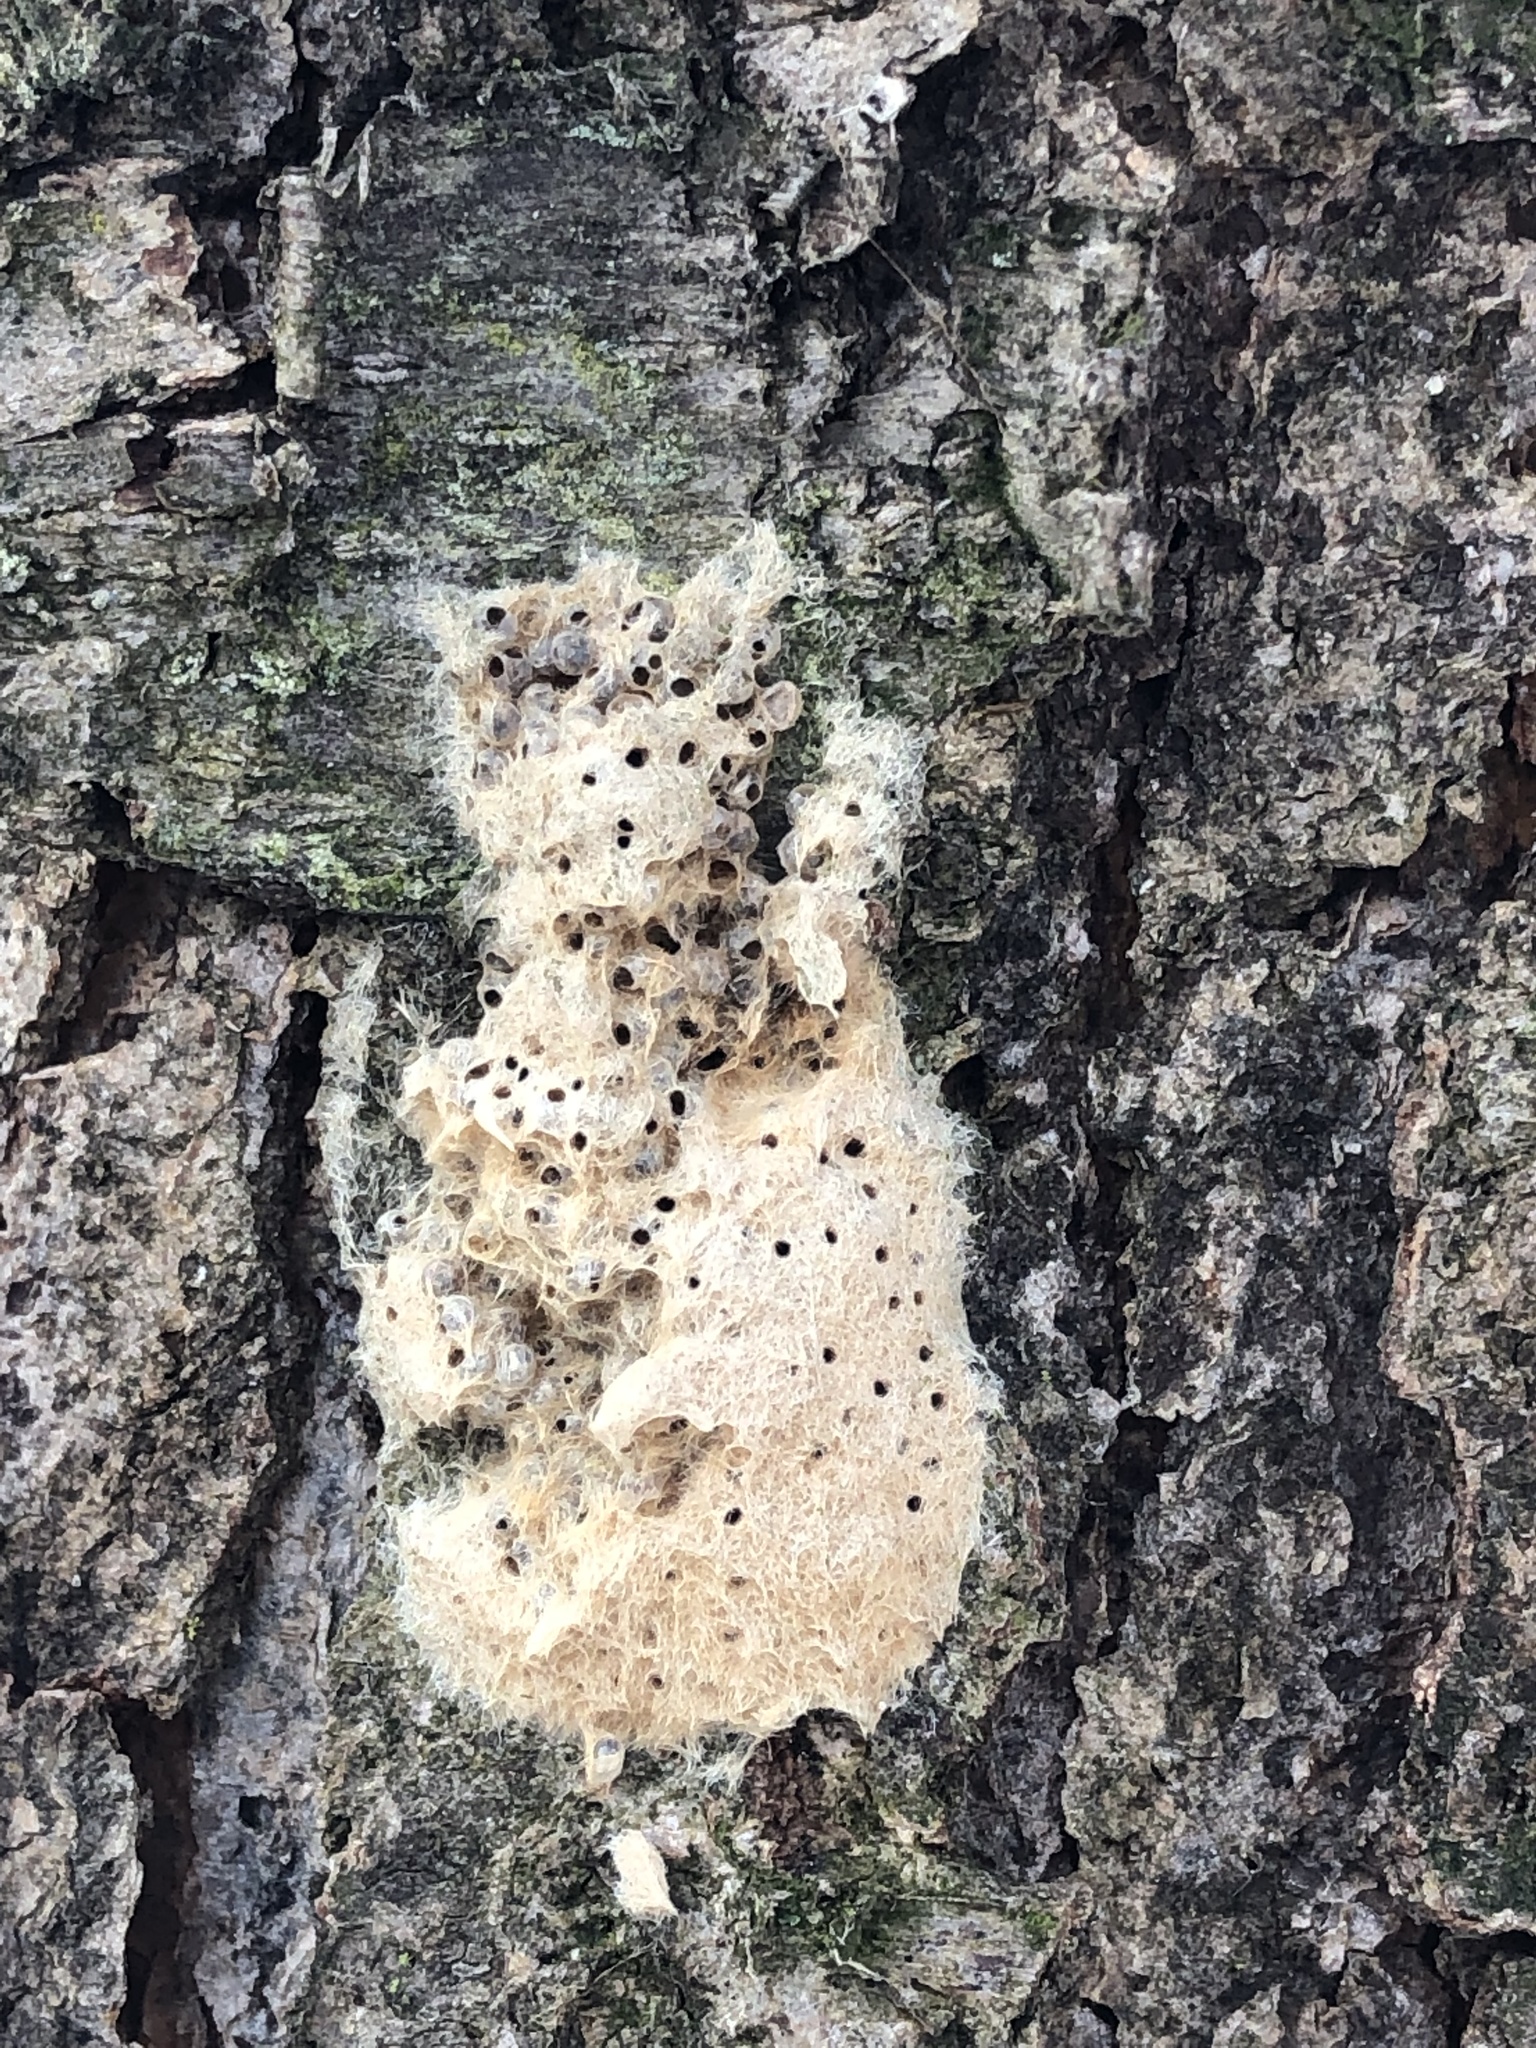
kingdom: Animalia
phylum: Arthropoda
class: Insecta
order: Lepidoptera
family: Erebidae
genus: Lymantria
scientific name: Lymantria dispar
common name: Gypsy moth
